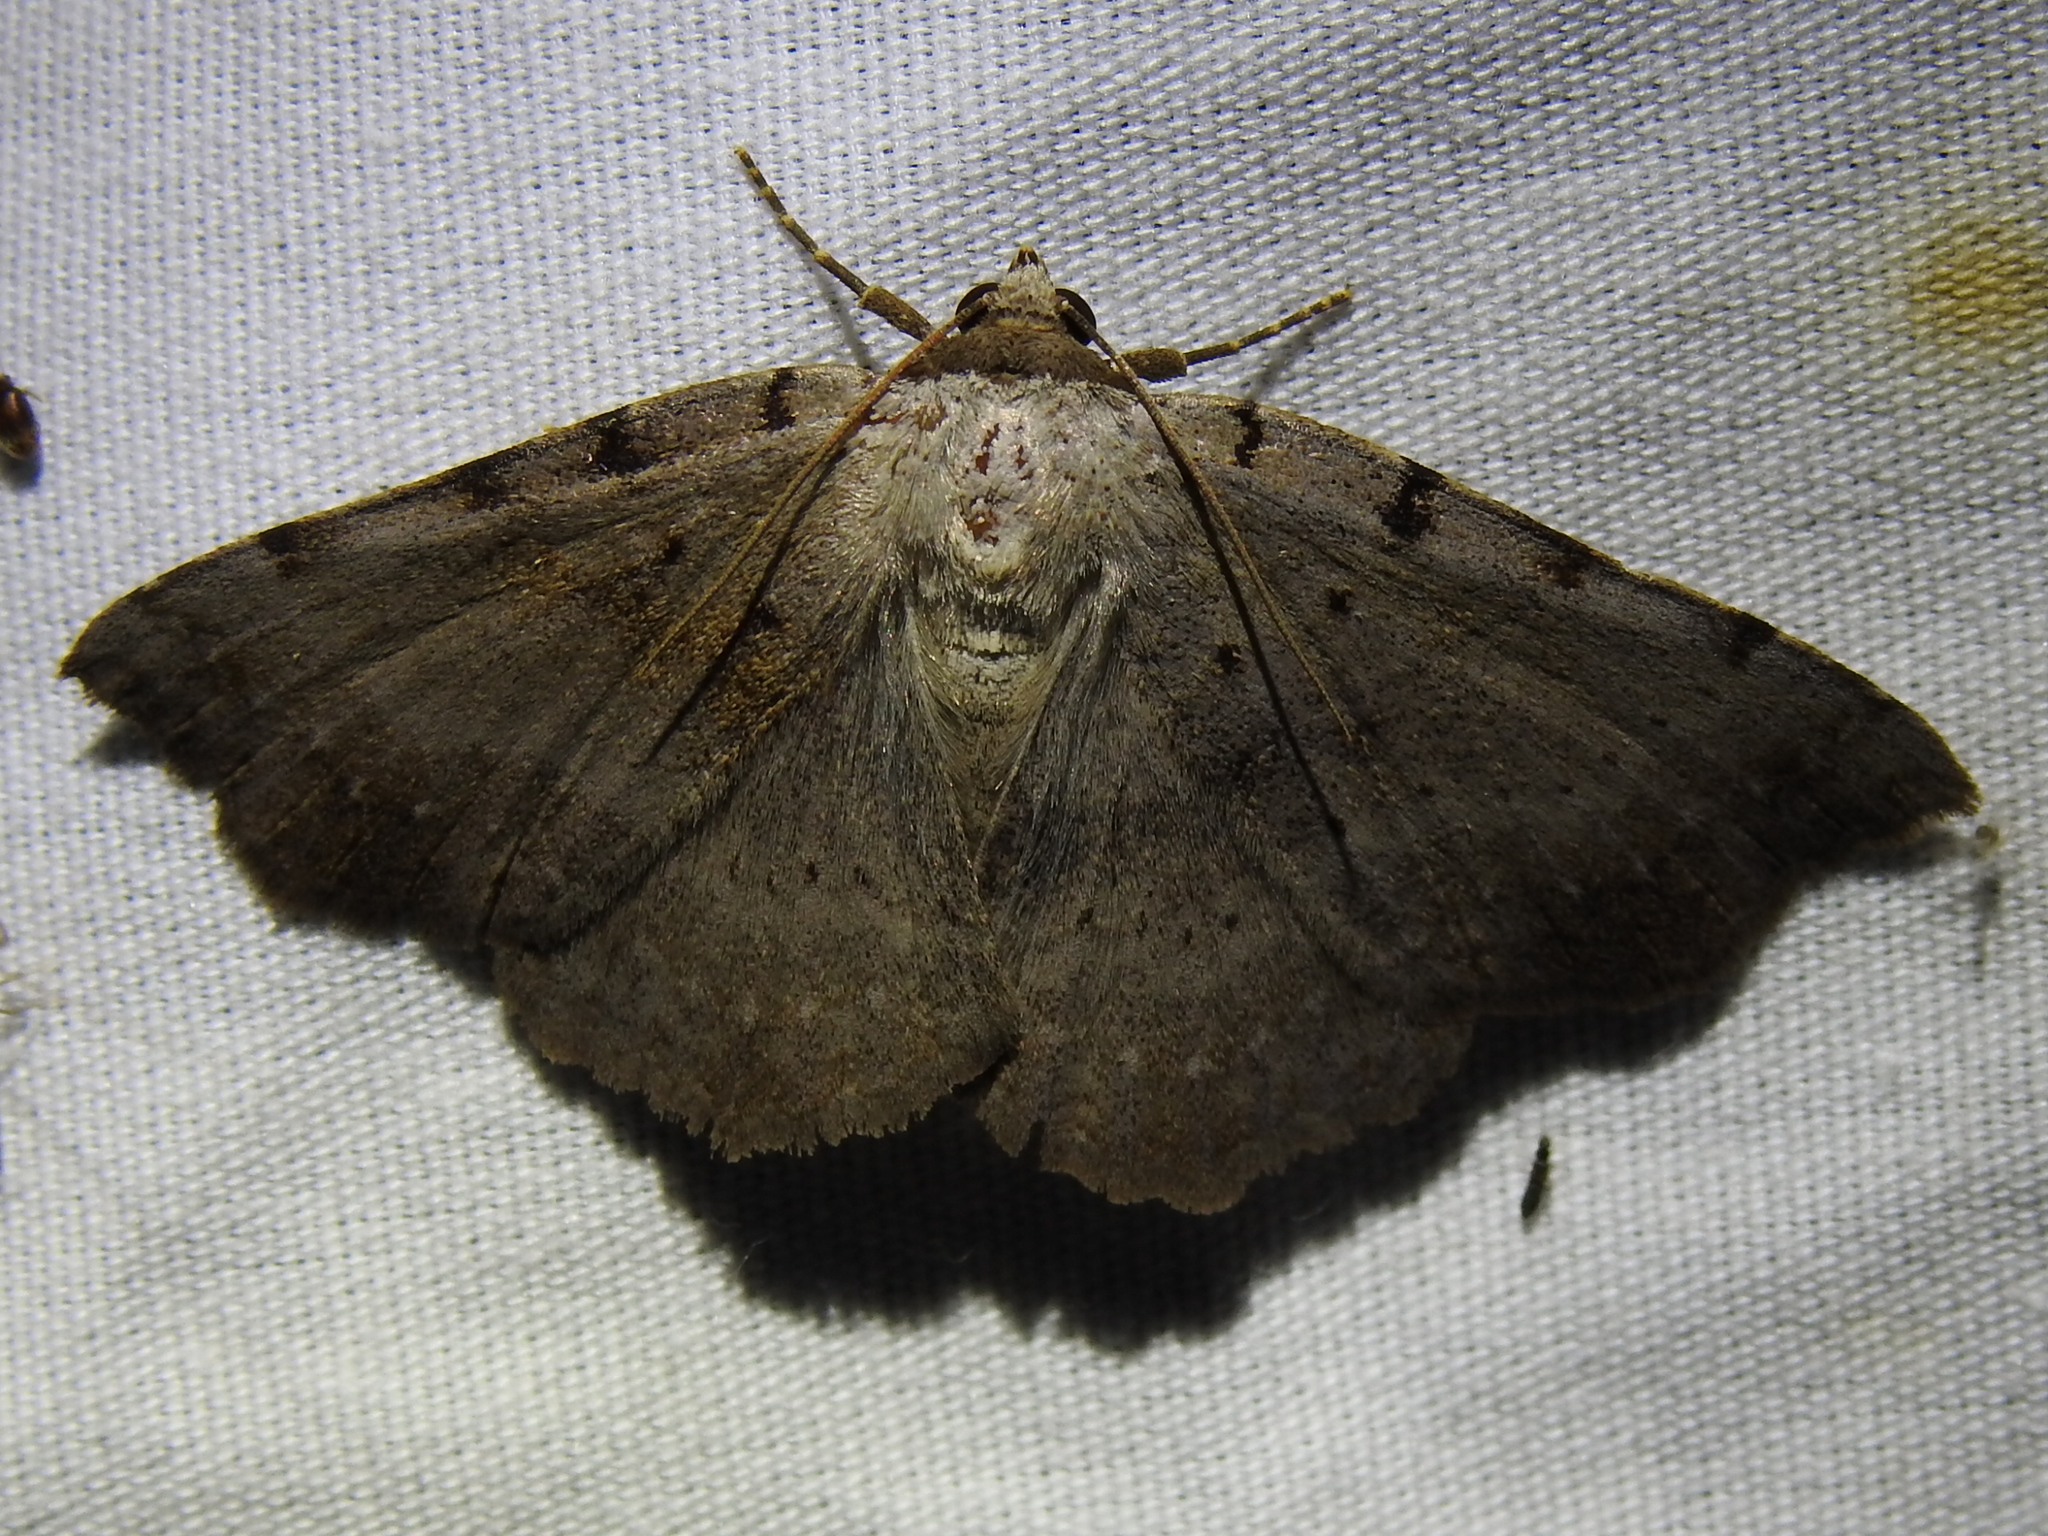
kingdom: Animalia
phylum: Arthropoda
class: Insecta
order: Lepidoptera
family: Erebidae
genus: Spiloloma
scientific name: Spiloloma lunilinea
